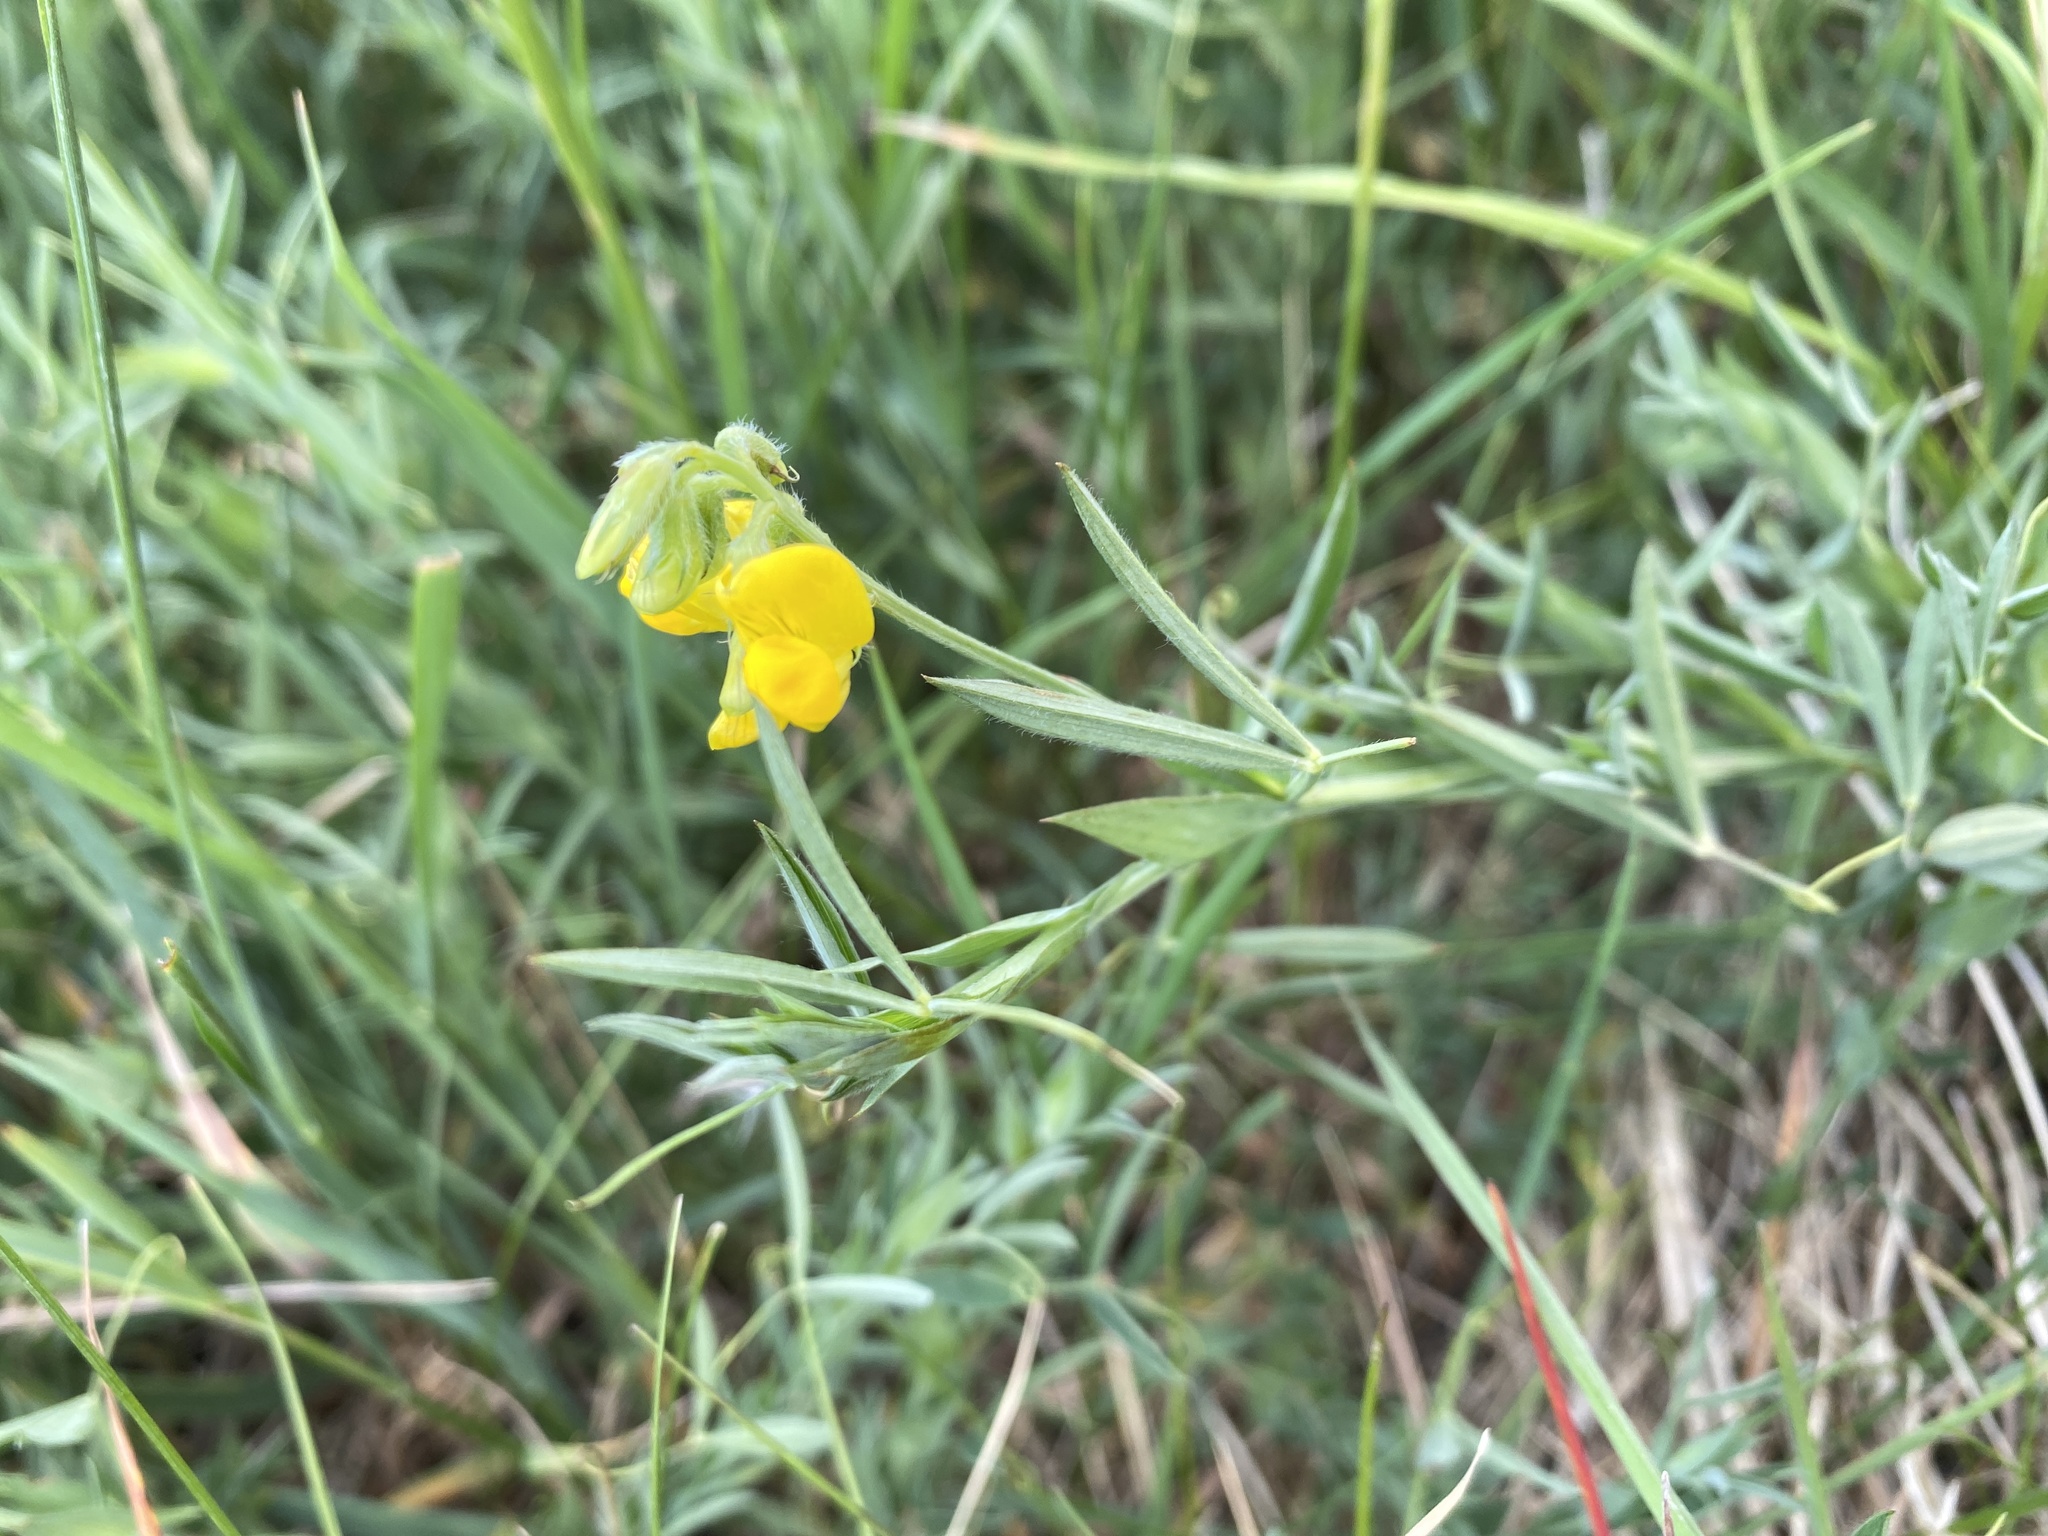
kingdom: Plantae
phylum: Tracheophyta
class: Magnoliopsida
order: Fabales
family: Fabaceae
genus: Lathyrus
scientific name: Lathyrus pratensis
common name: Meadow vetchling
